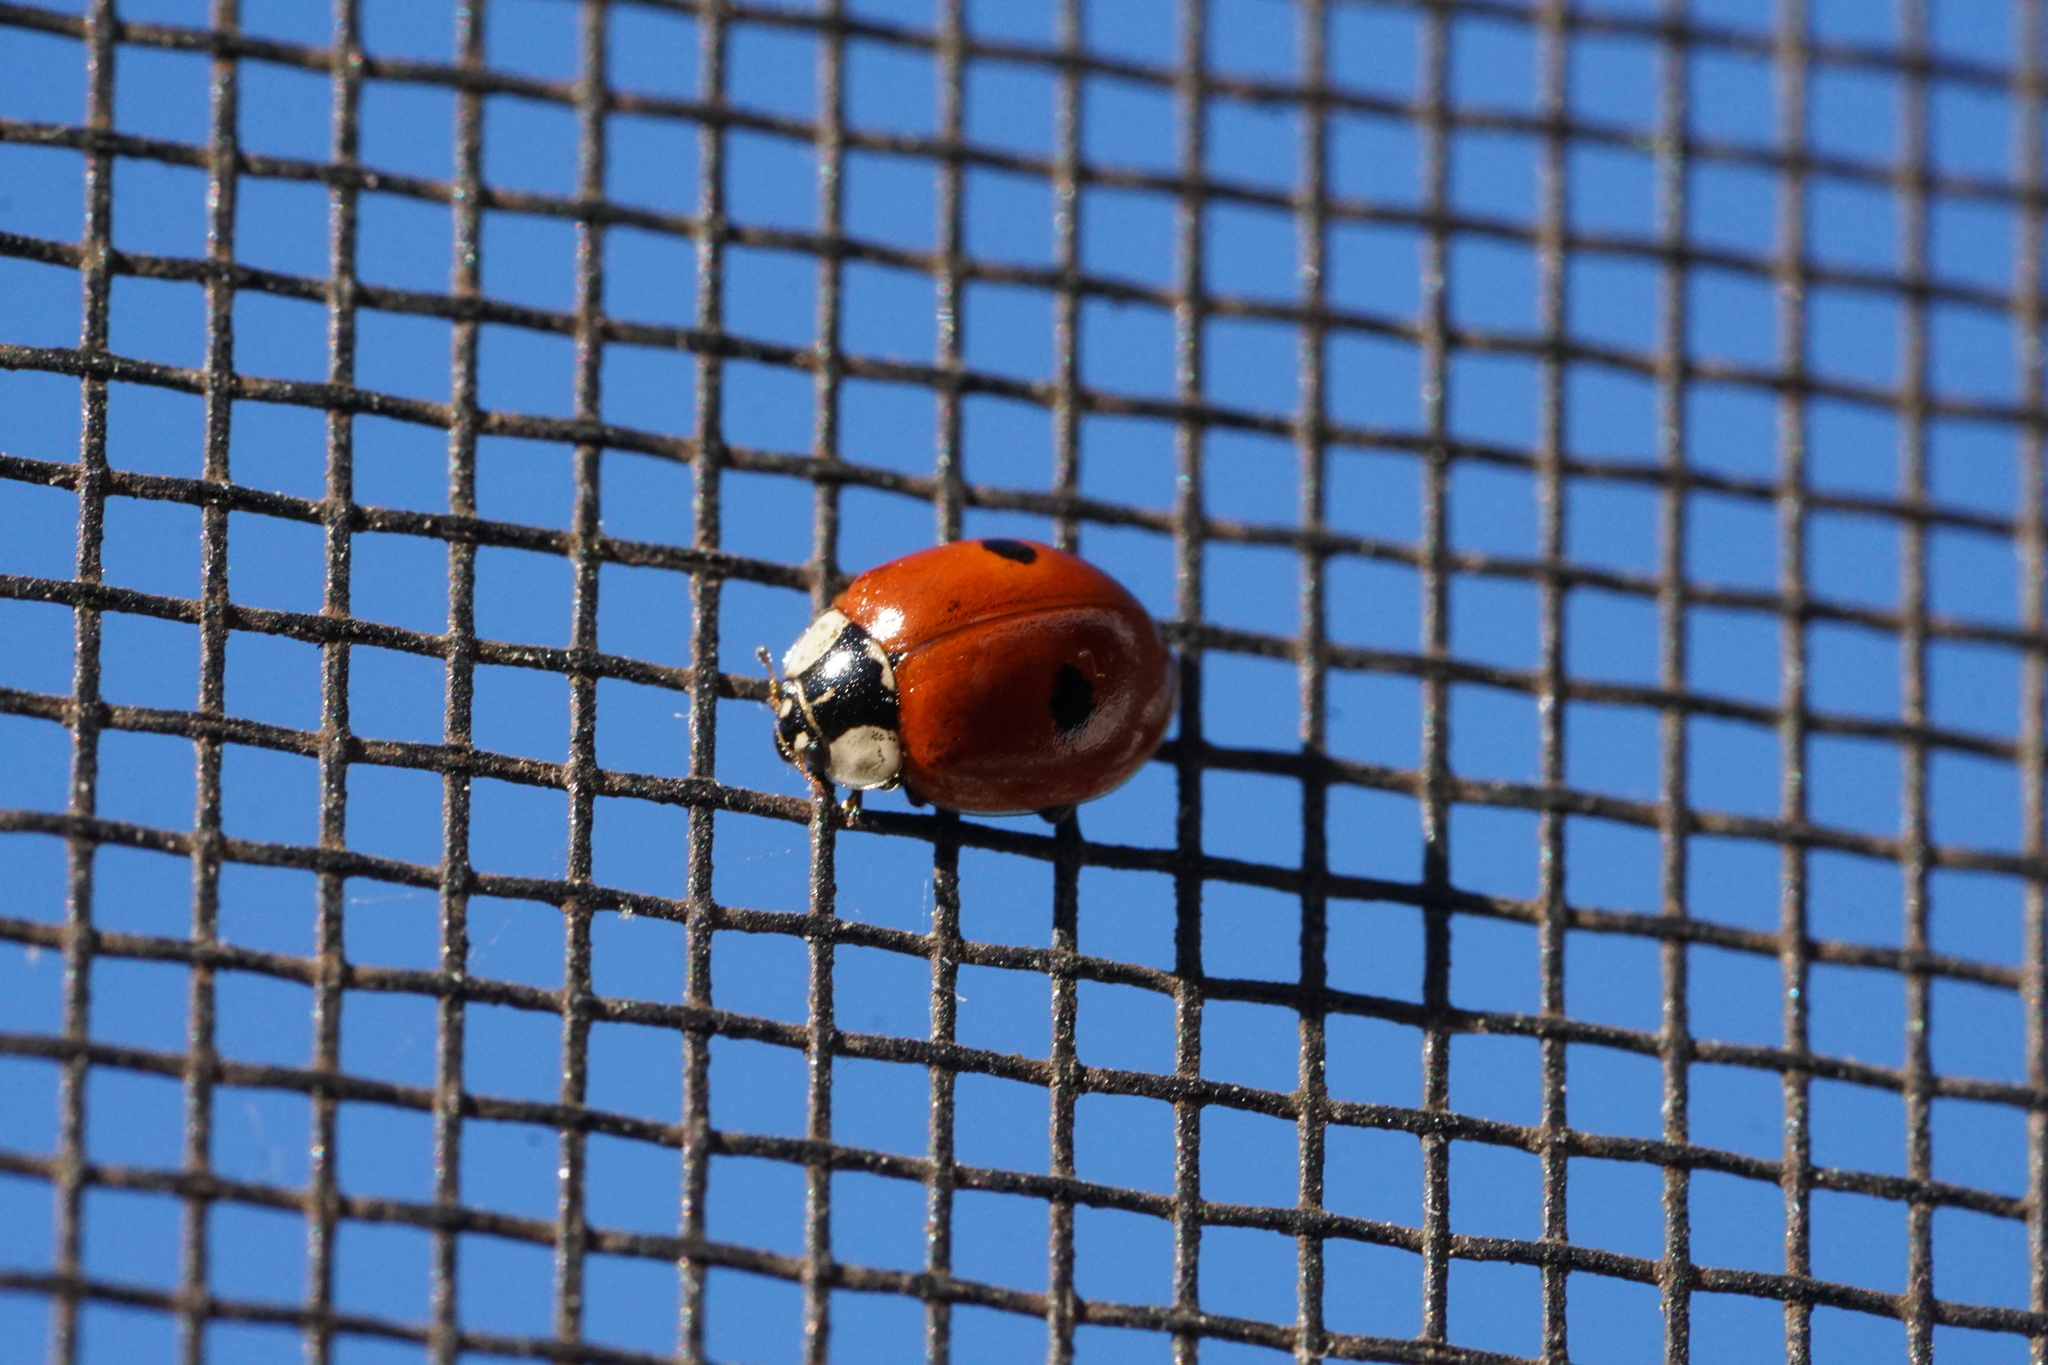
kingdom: Animalia
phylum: Arthropoda
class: Insecta
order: Coleoptera
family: Coccinellidae
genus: Adalia
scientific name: Adalia bipunctata
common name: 2-spot ladybird
